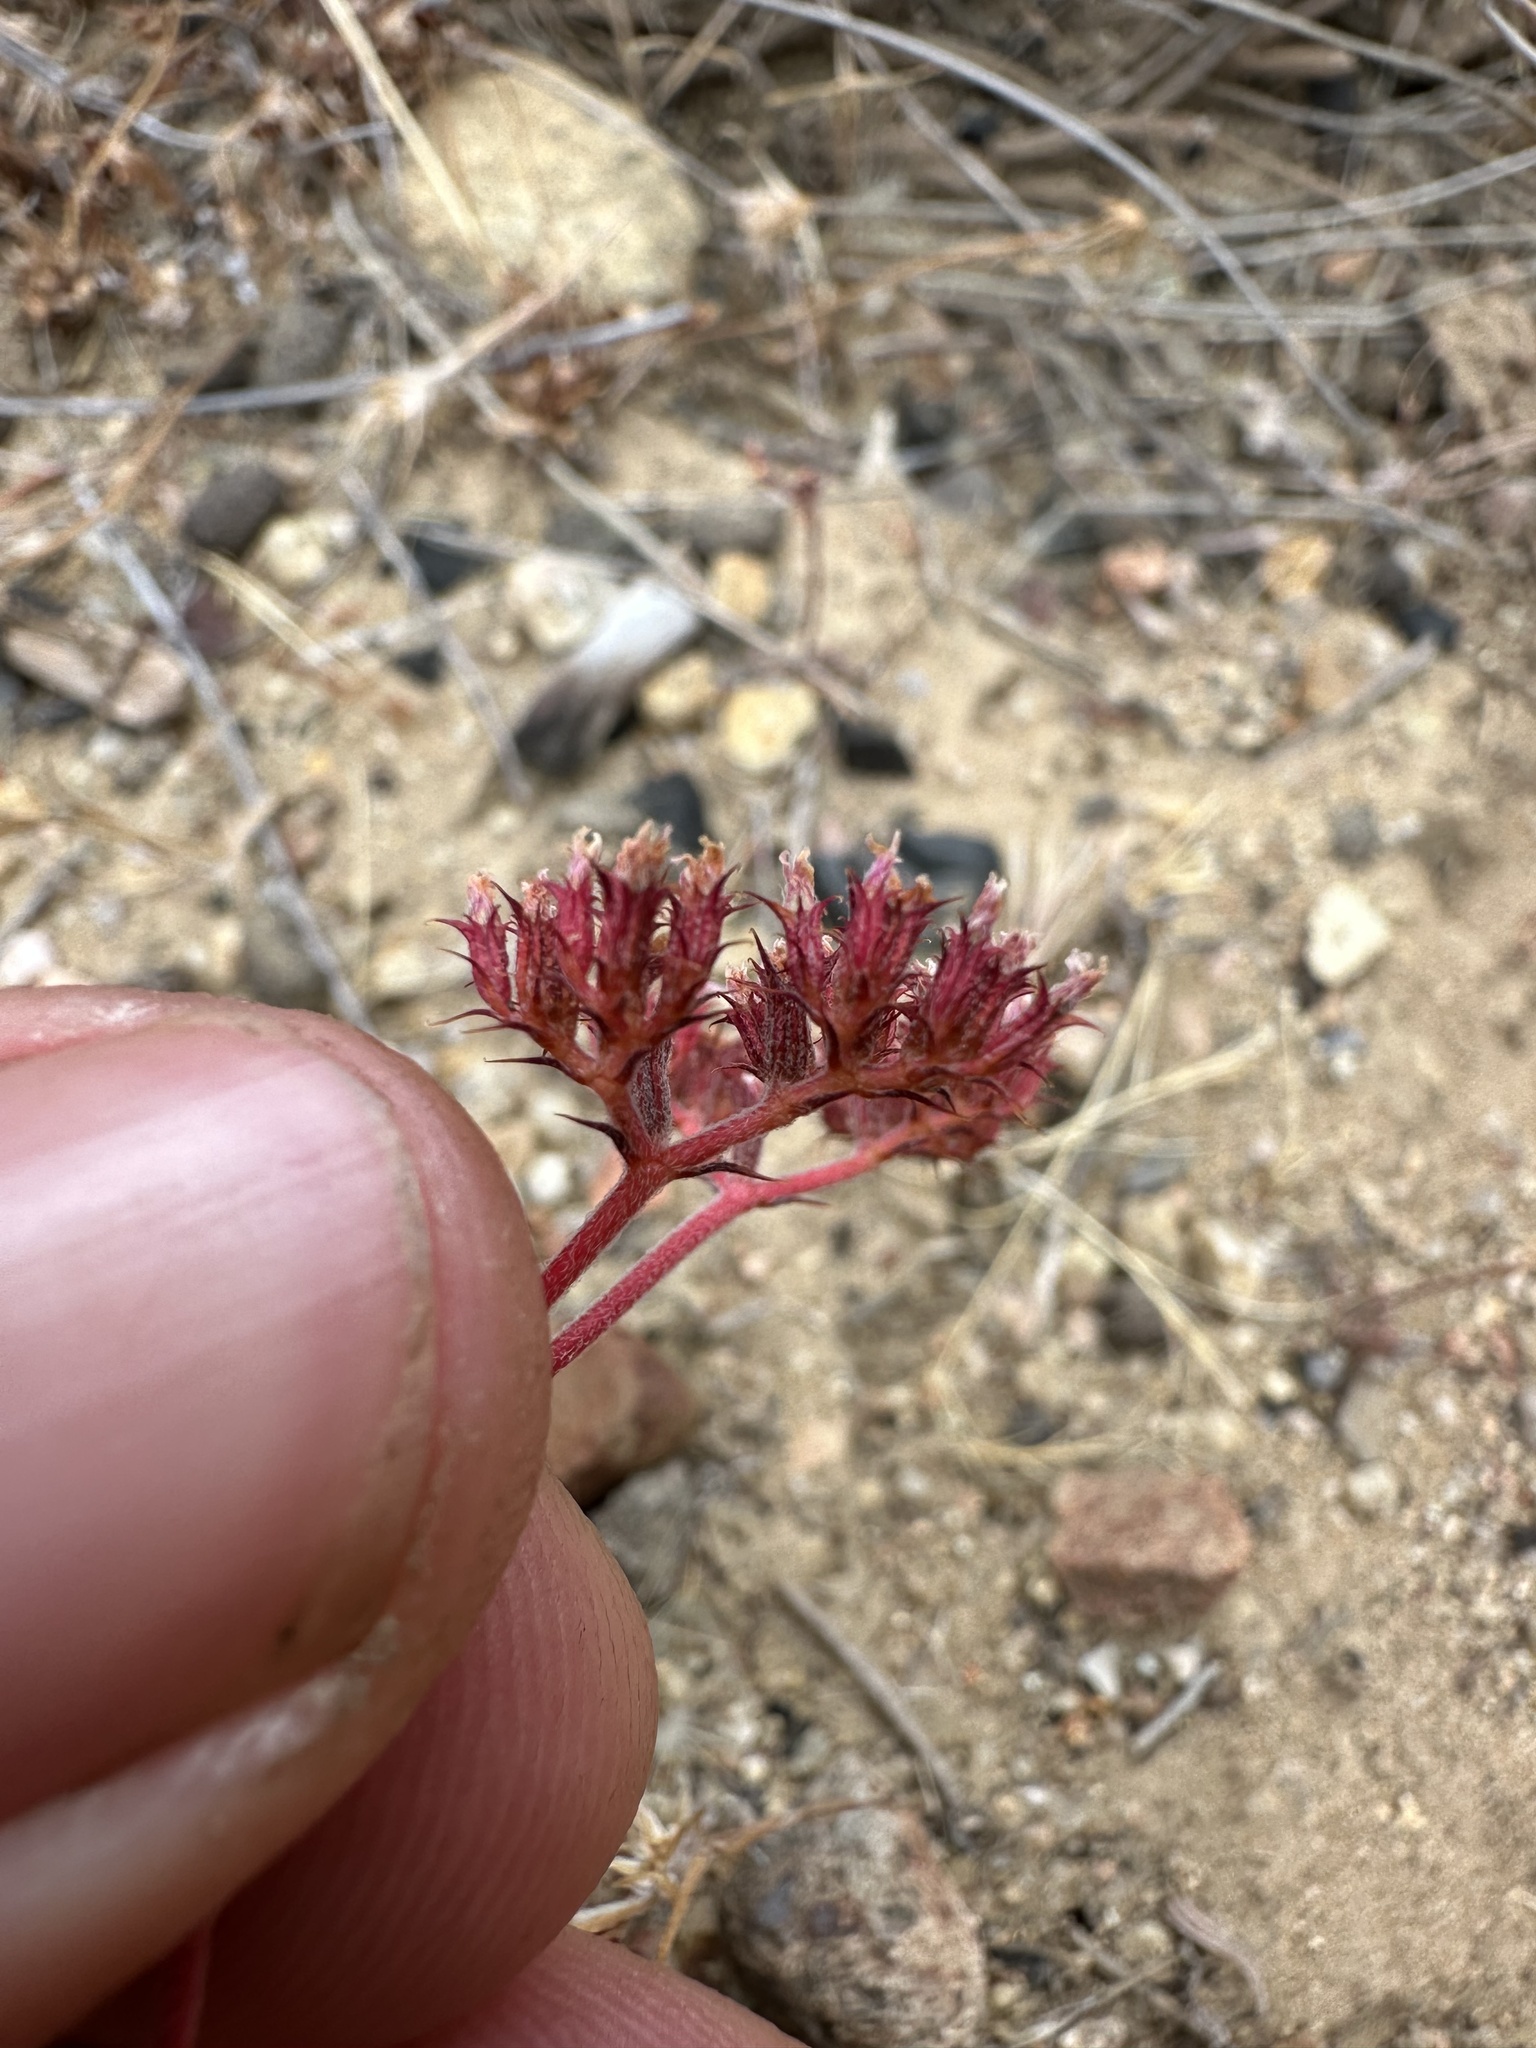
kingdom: Plantae
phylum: Tracheophyta
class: Magnoliopsida
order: Caryophyllales
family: Polygonaceae
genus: Chorizanthe
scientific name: Chorizanthe staticoides
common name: Turkish rugging
